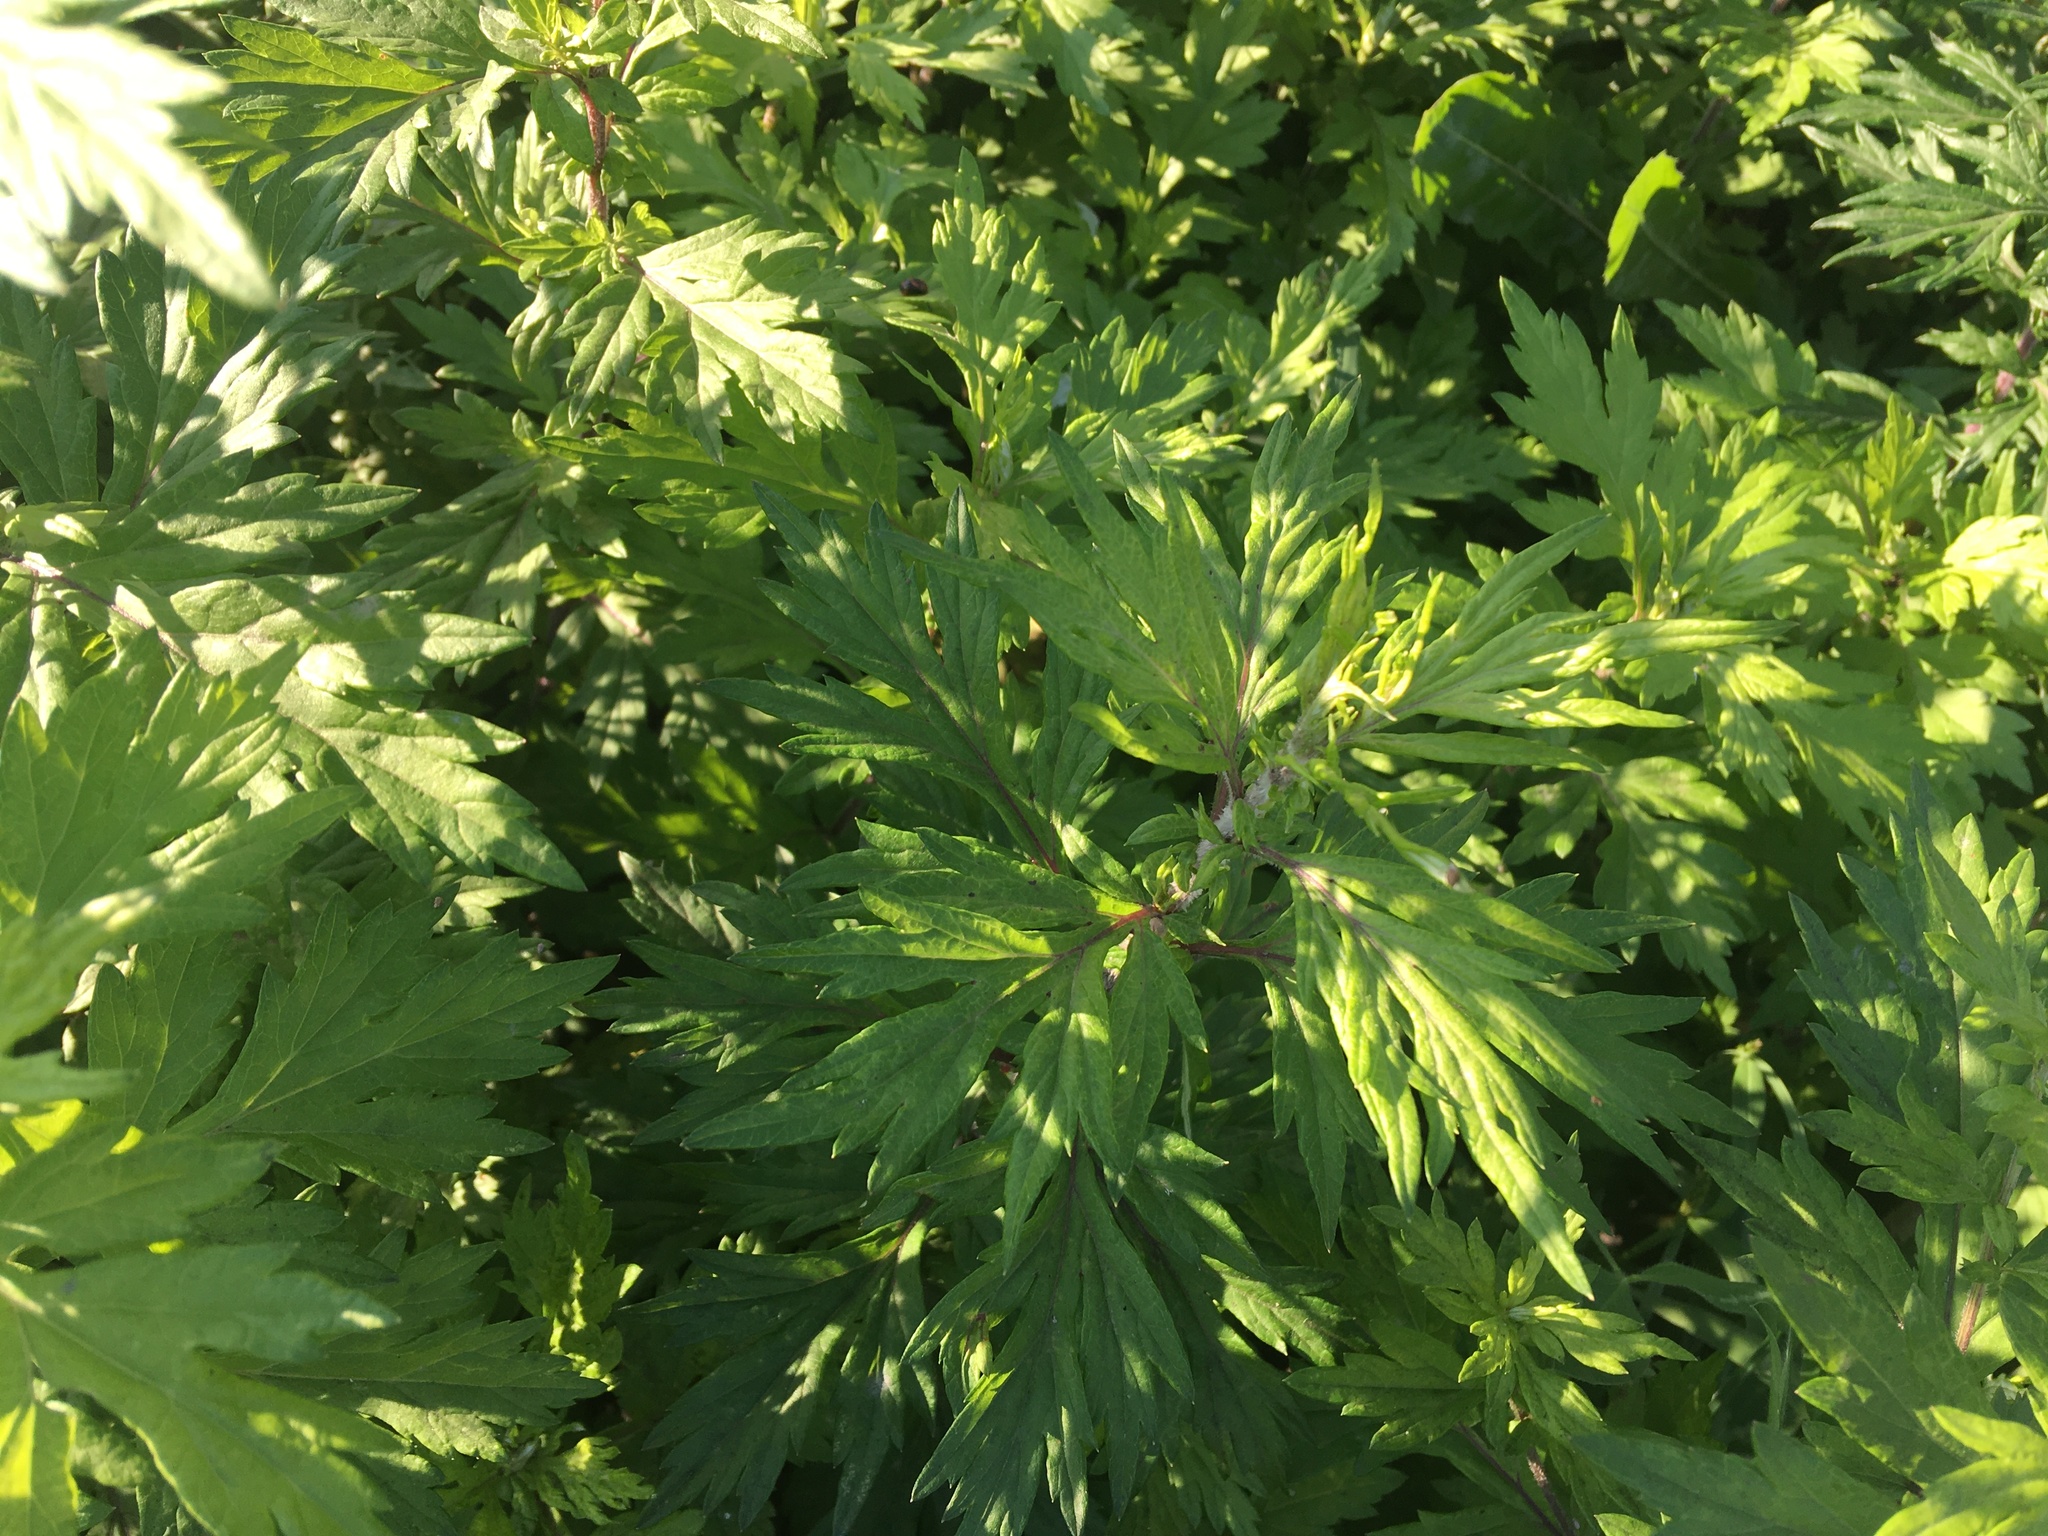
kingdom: Plantae
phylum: Tracheophyta
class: Magnoliopsida
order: Asterales
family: Asteraceae
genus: Artemisia
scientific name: Artemisia vulgaris
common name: Mugwort
